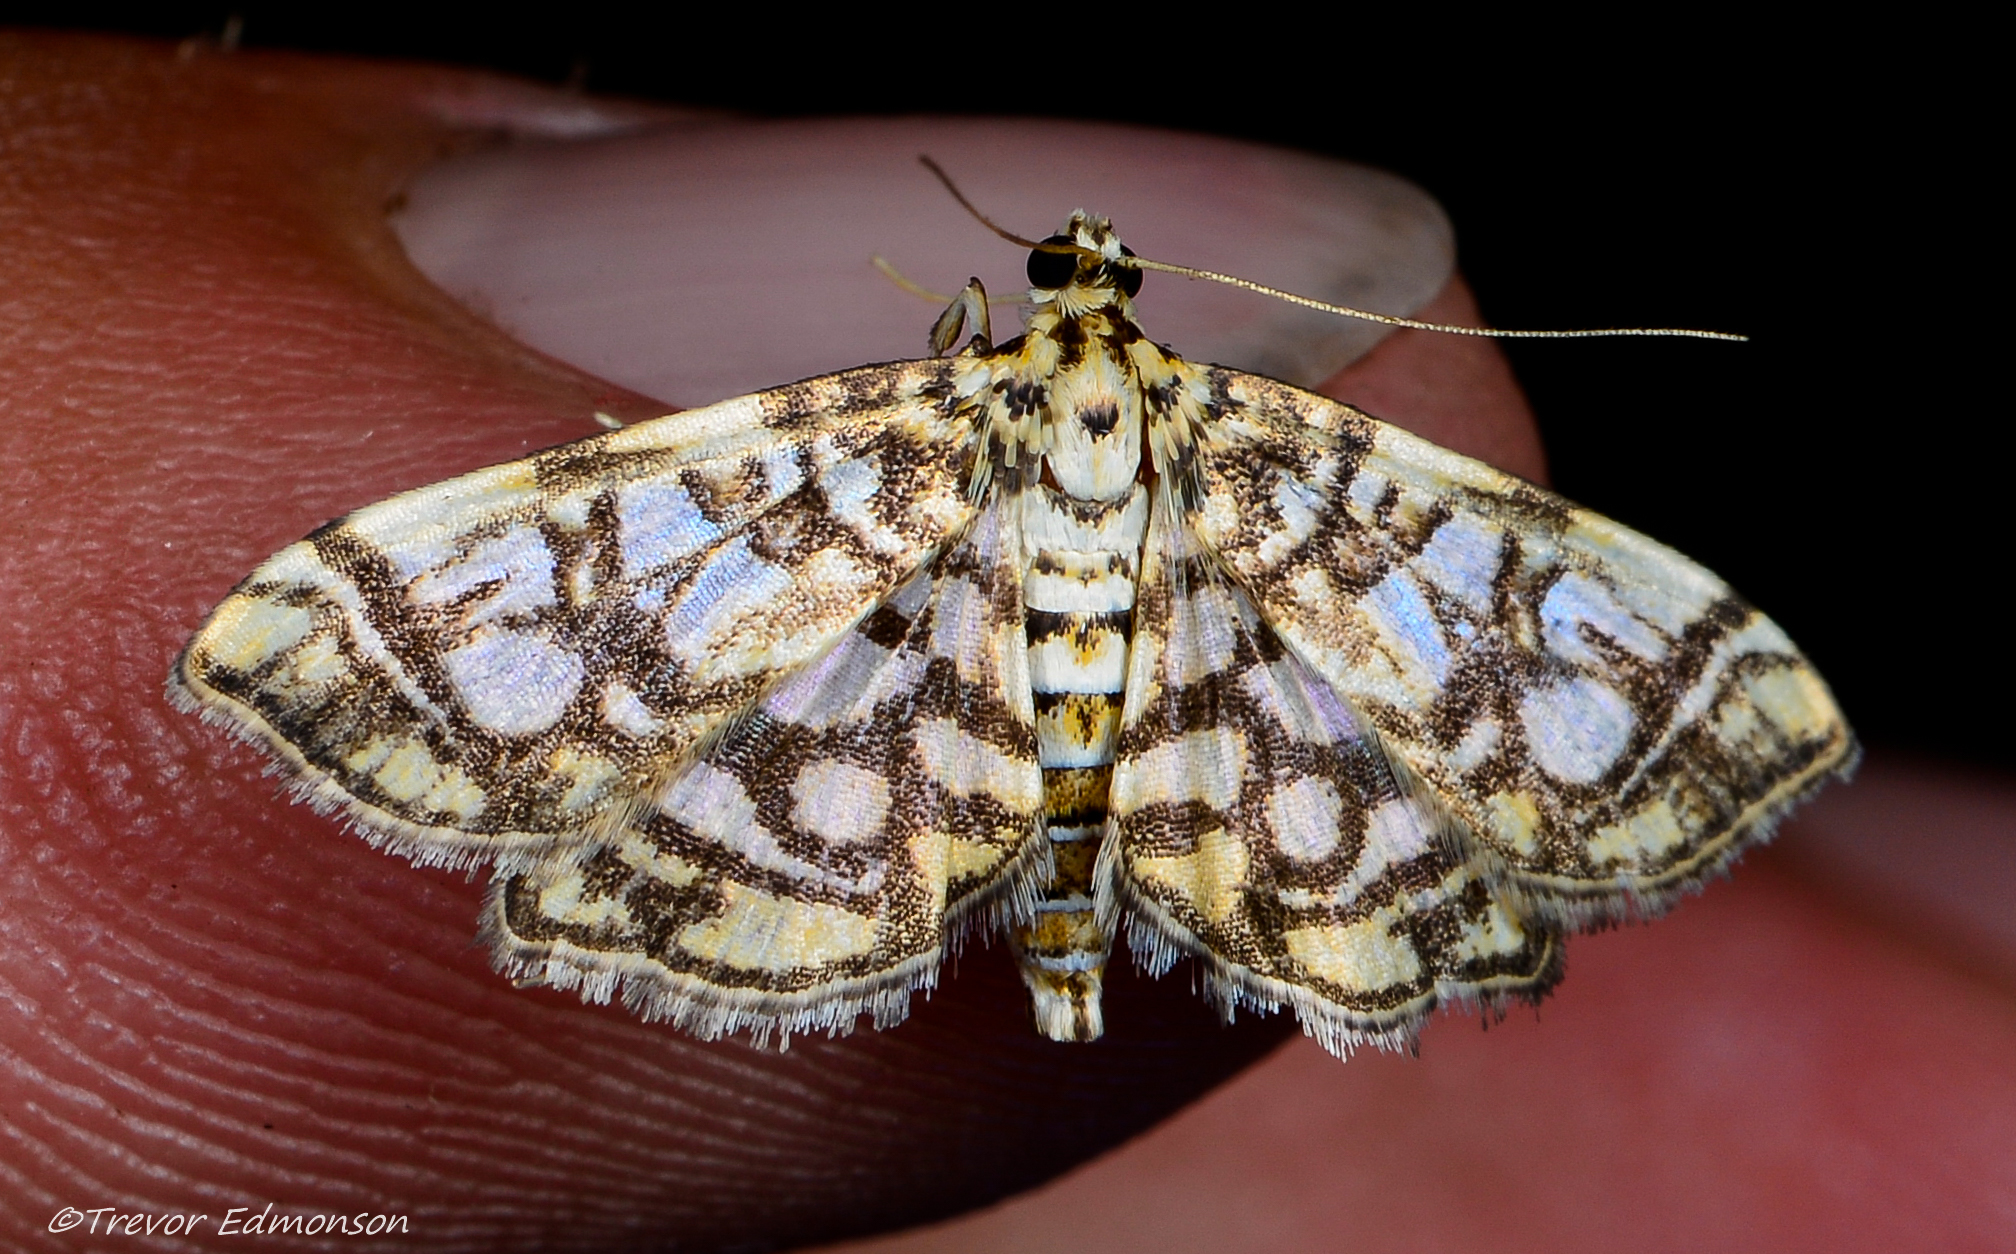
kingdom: Animalia
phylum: Arthropoda
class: Insecta
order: Lepidoptera
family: Crambidae
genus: Lygropia
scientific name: Lygropia rivulalis
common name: Bog lygropia moth
